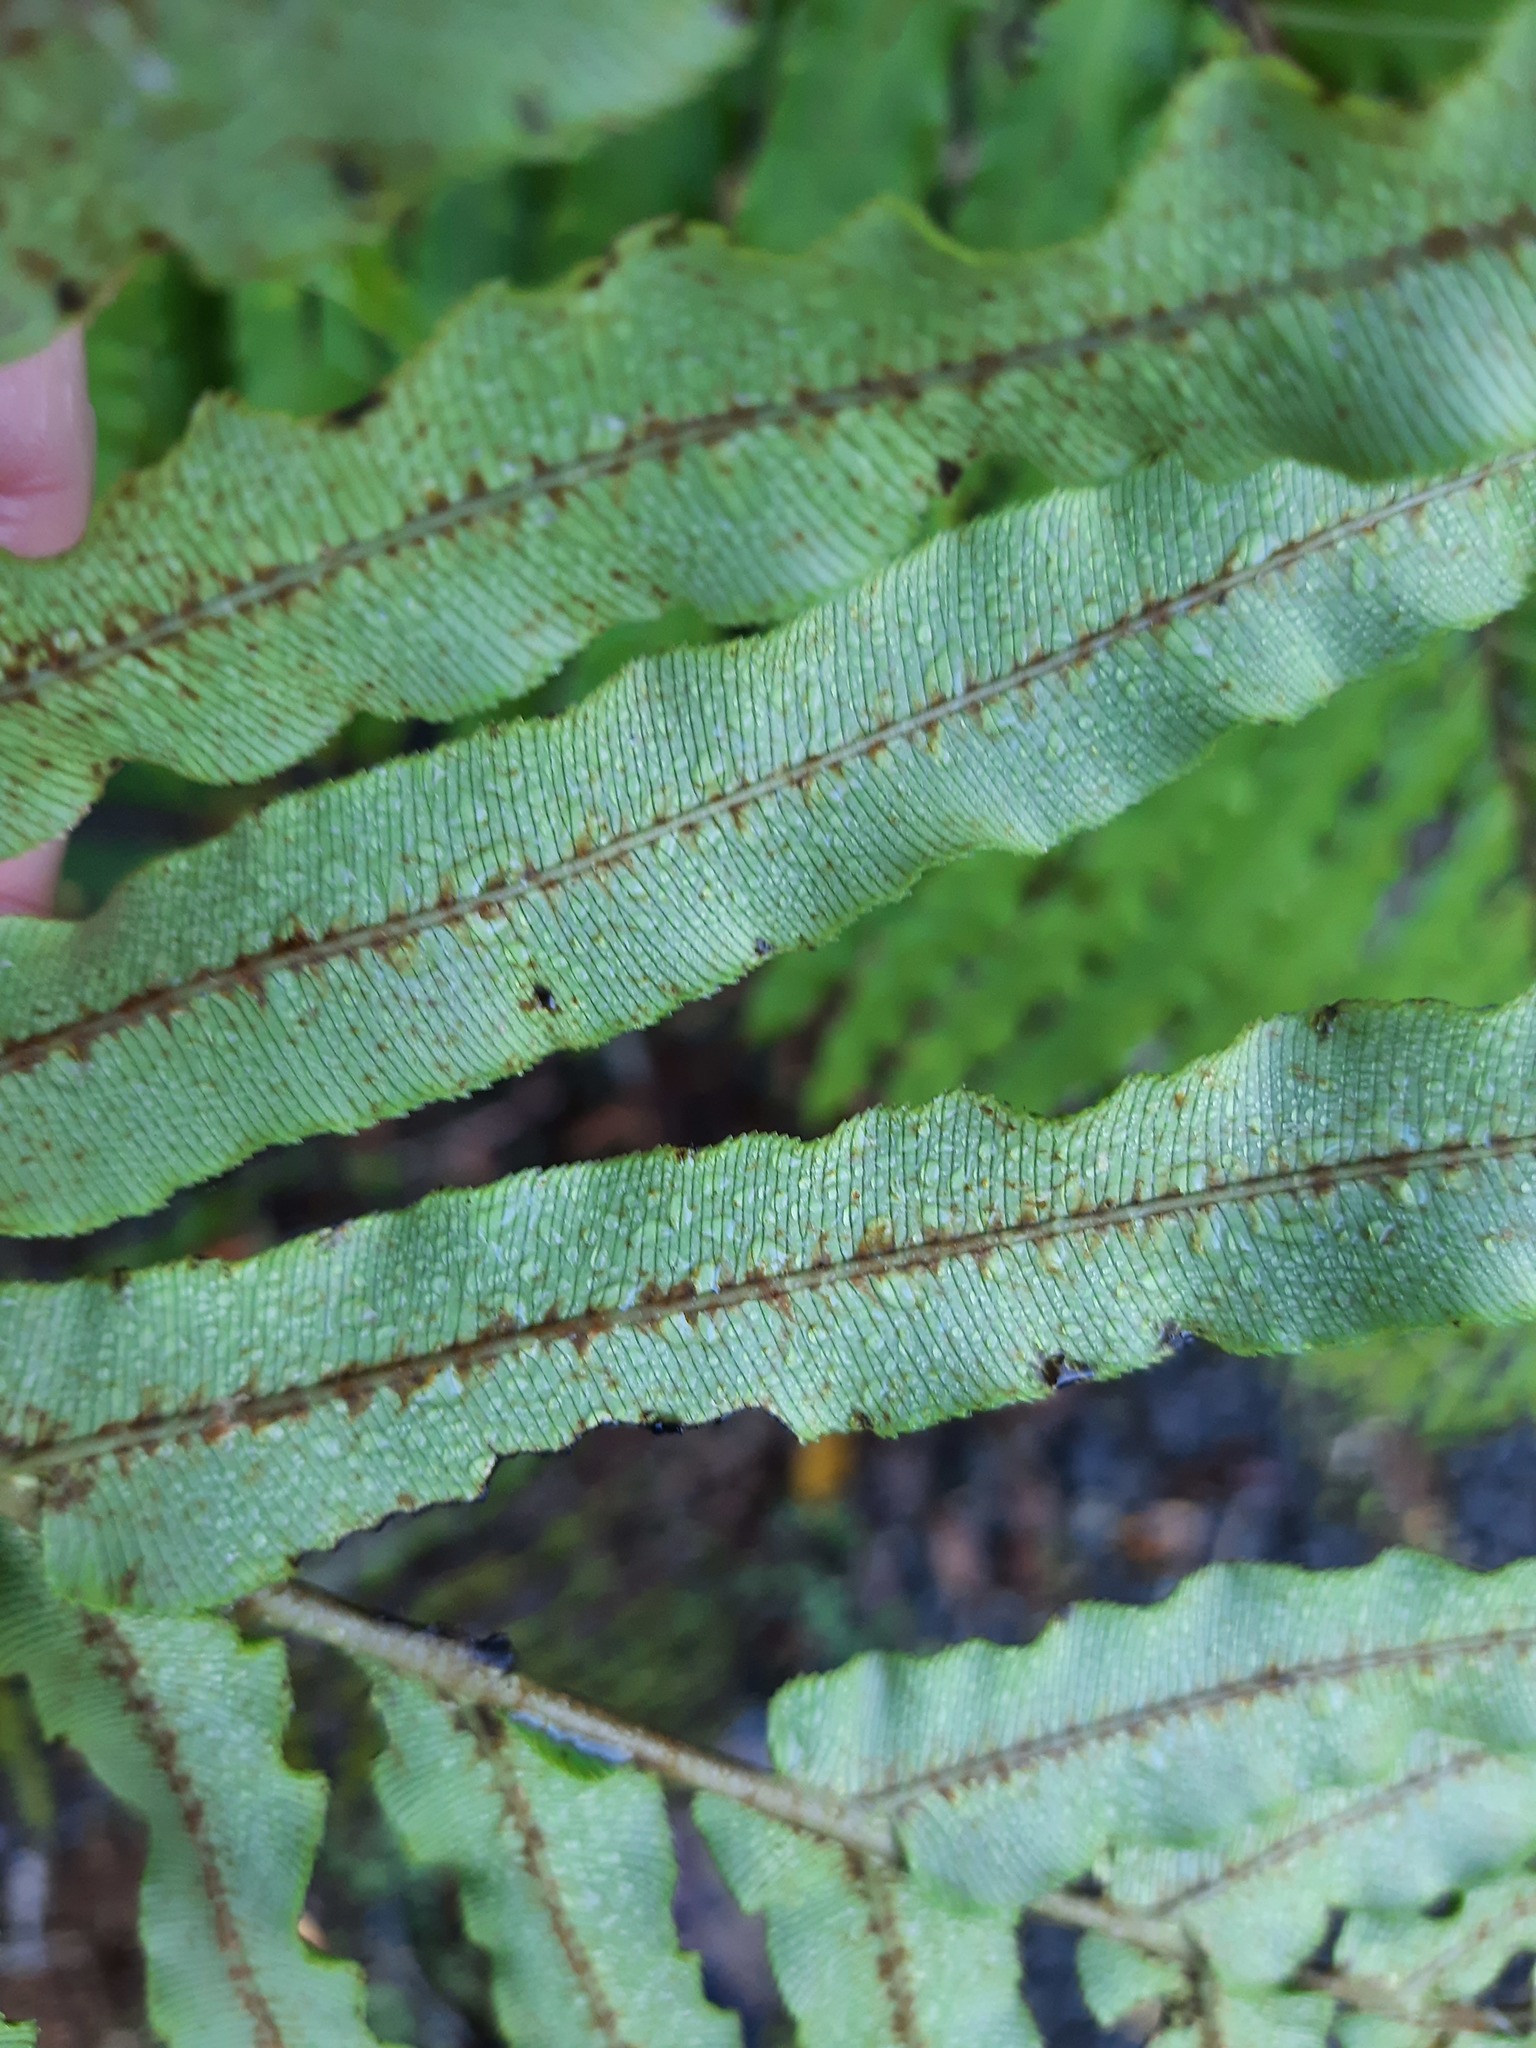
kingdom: Plantae
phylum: Tracheophyta
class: Polypodiopsida
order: Polypodiales
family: Blechnaceae
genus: Parablechnum
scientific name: Parablechnum novae-zelandiae
